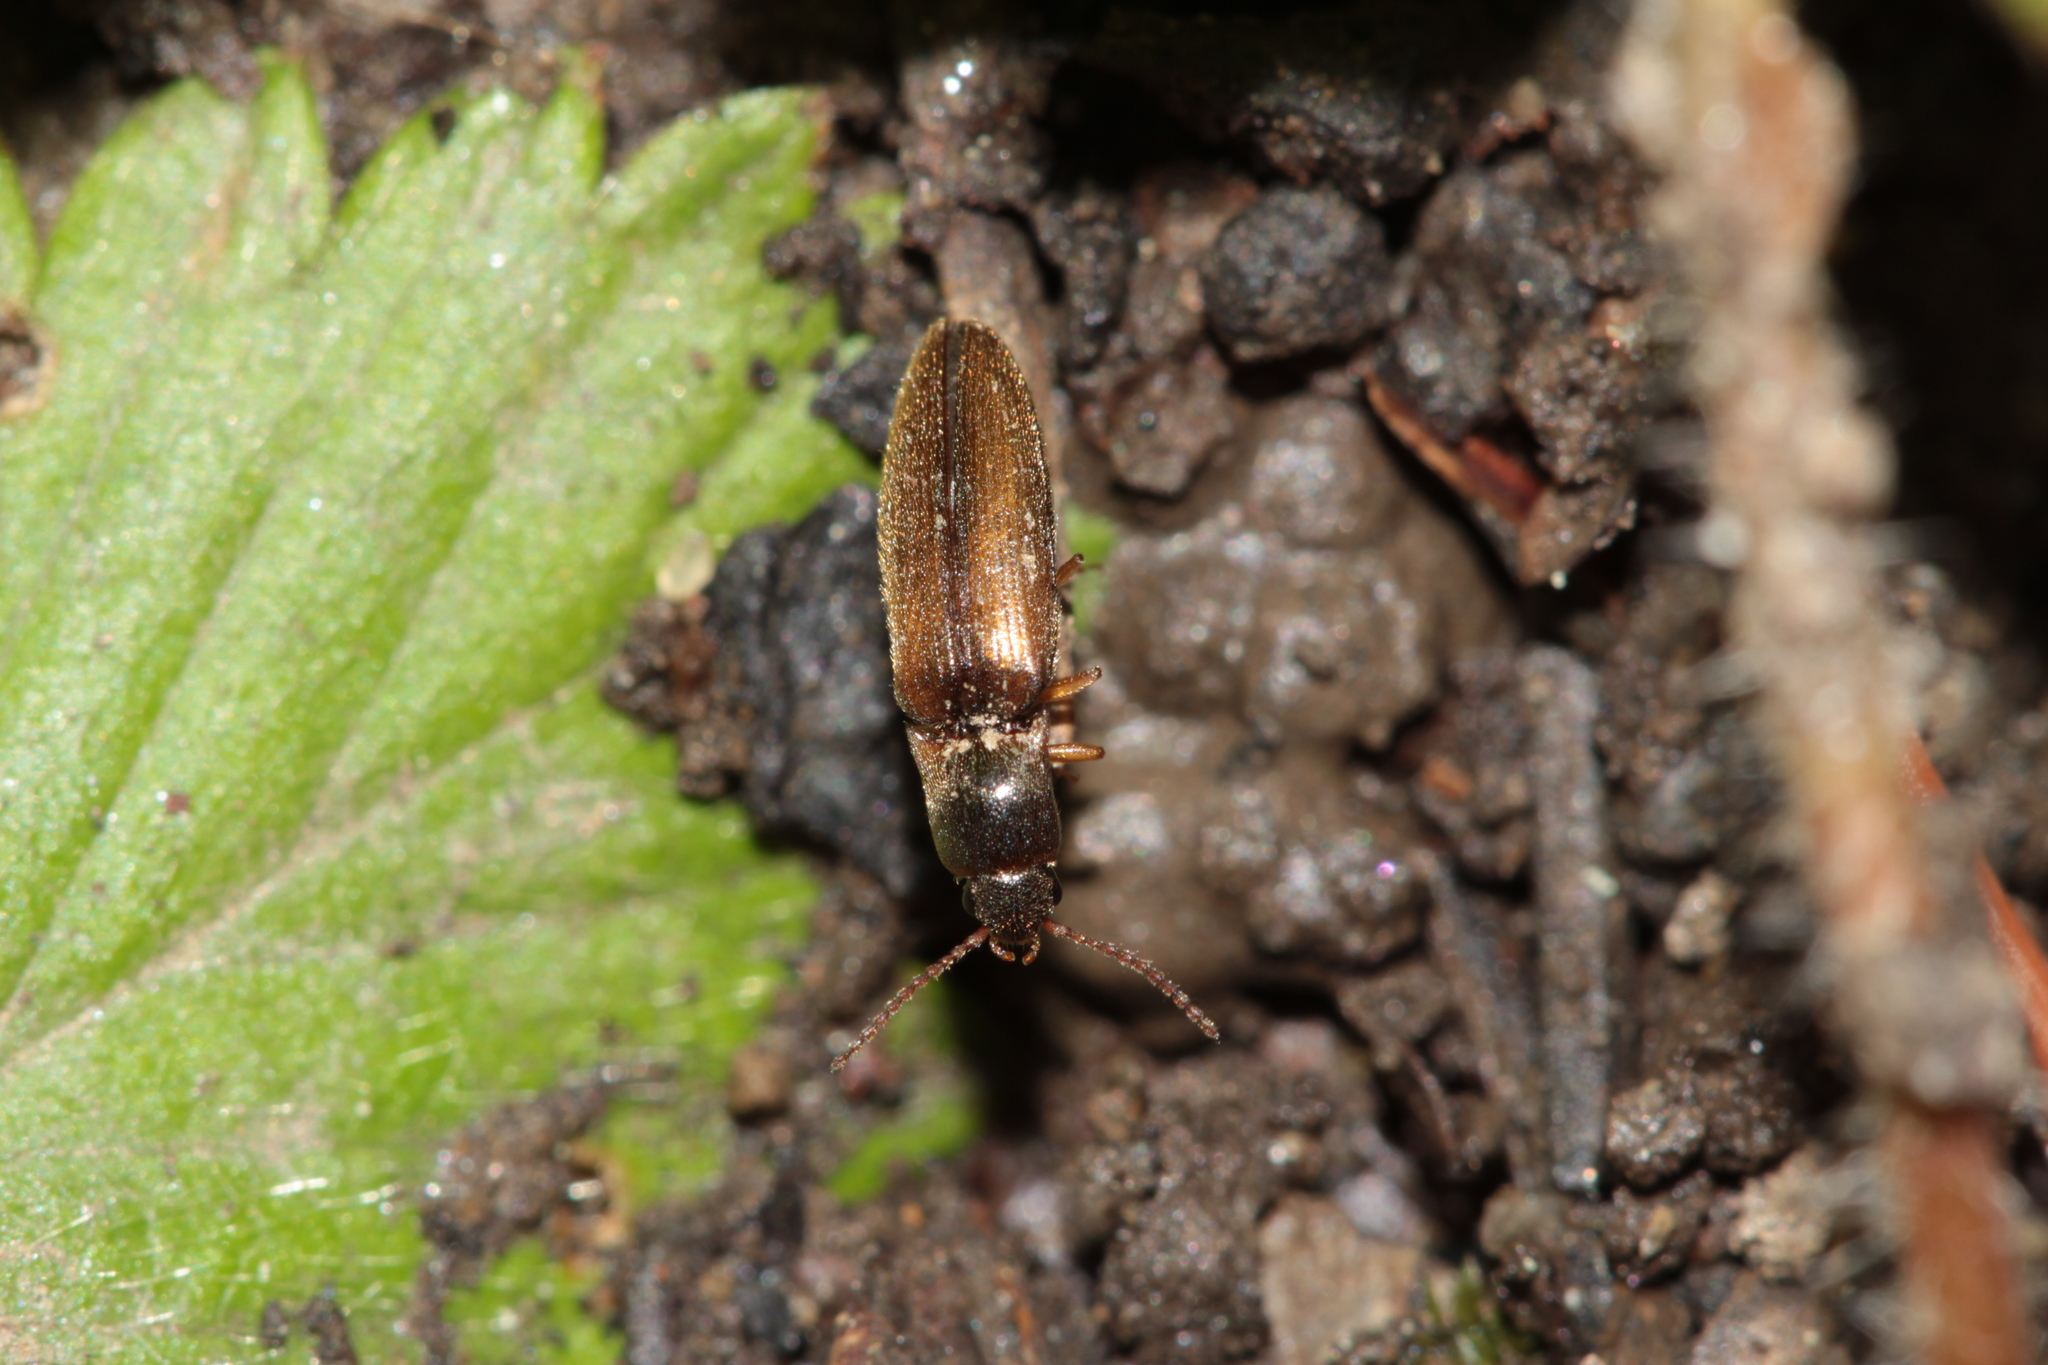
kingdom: Animalia
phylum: Arthropoda
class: Insecta
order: Coleoptera
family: Elateridae
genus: Agriotes
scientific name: Agriotes acuminatus
